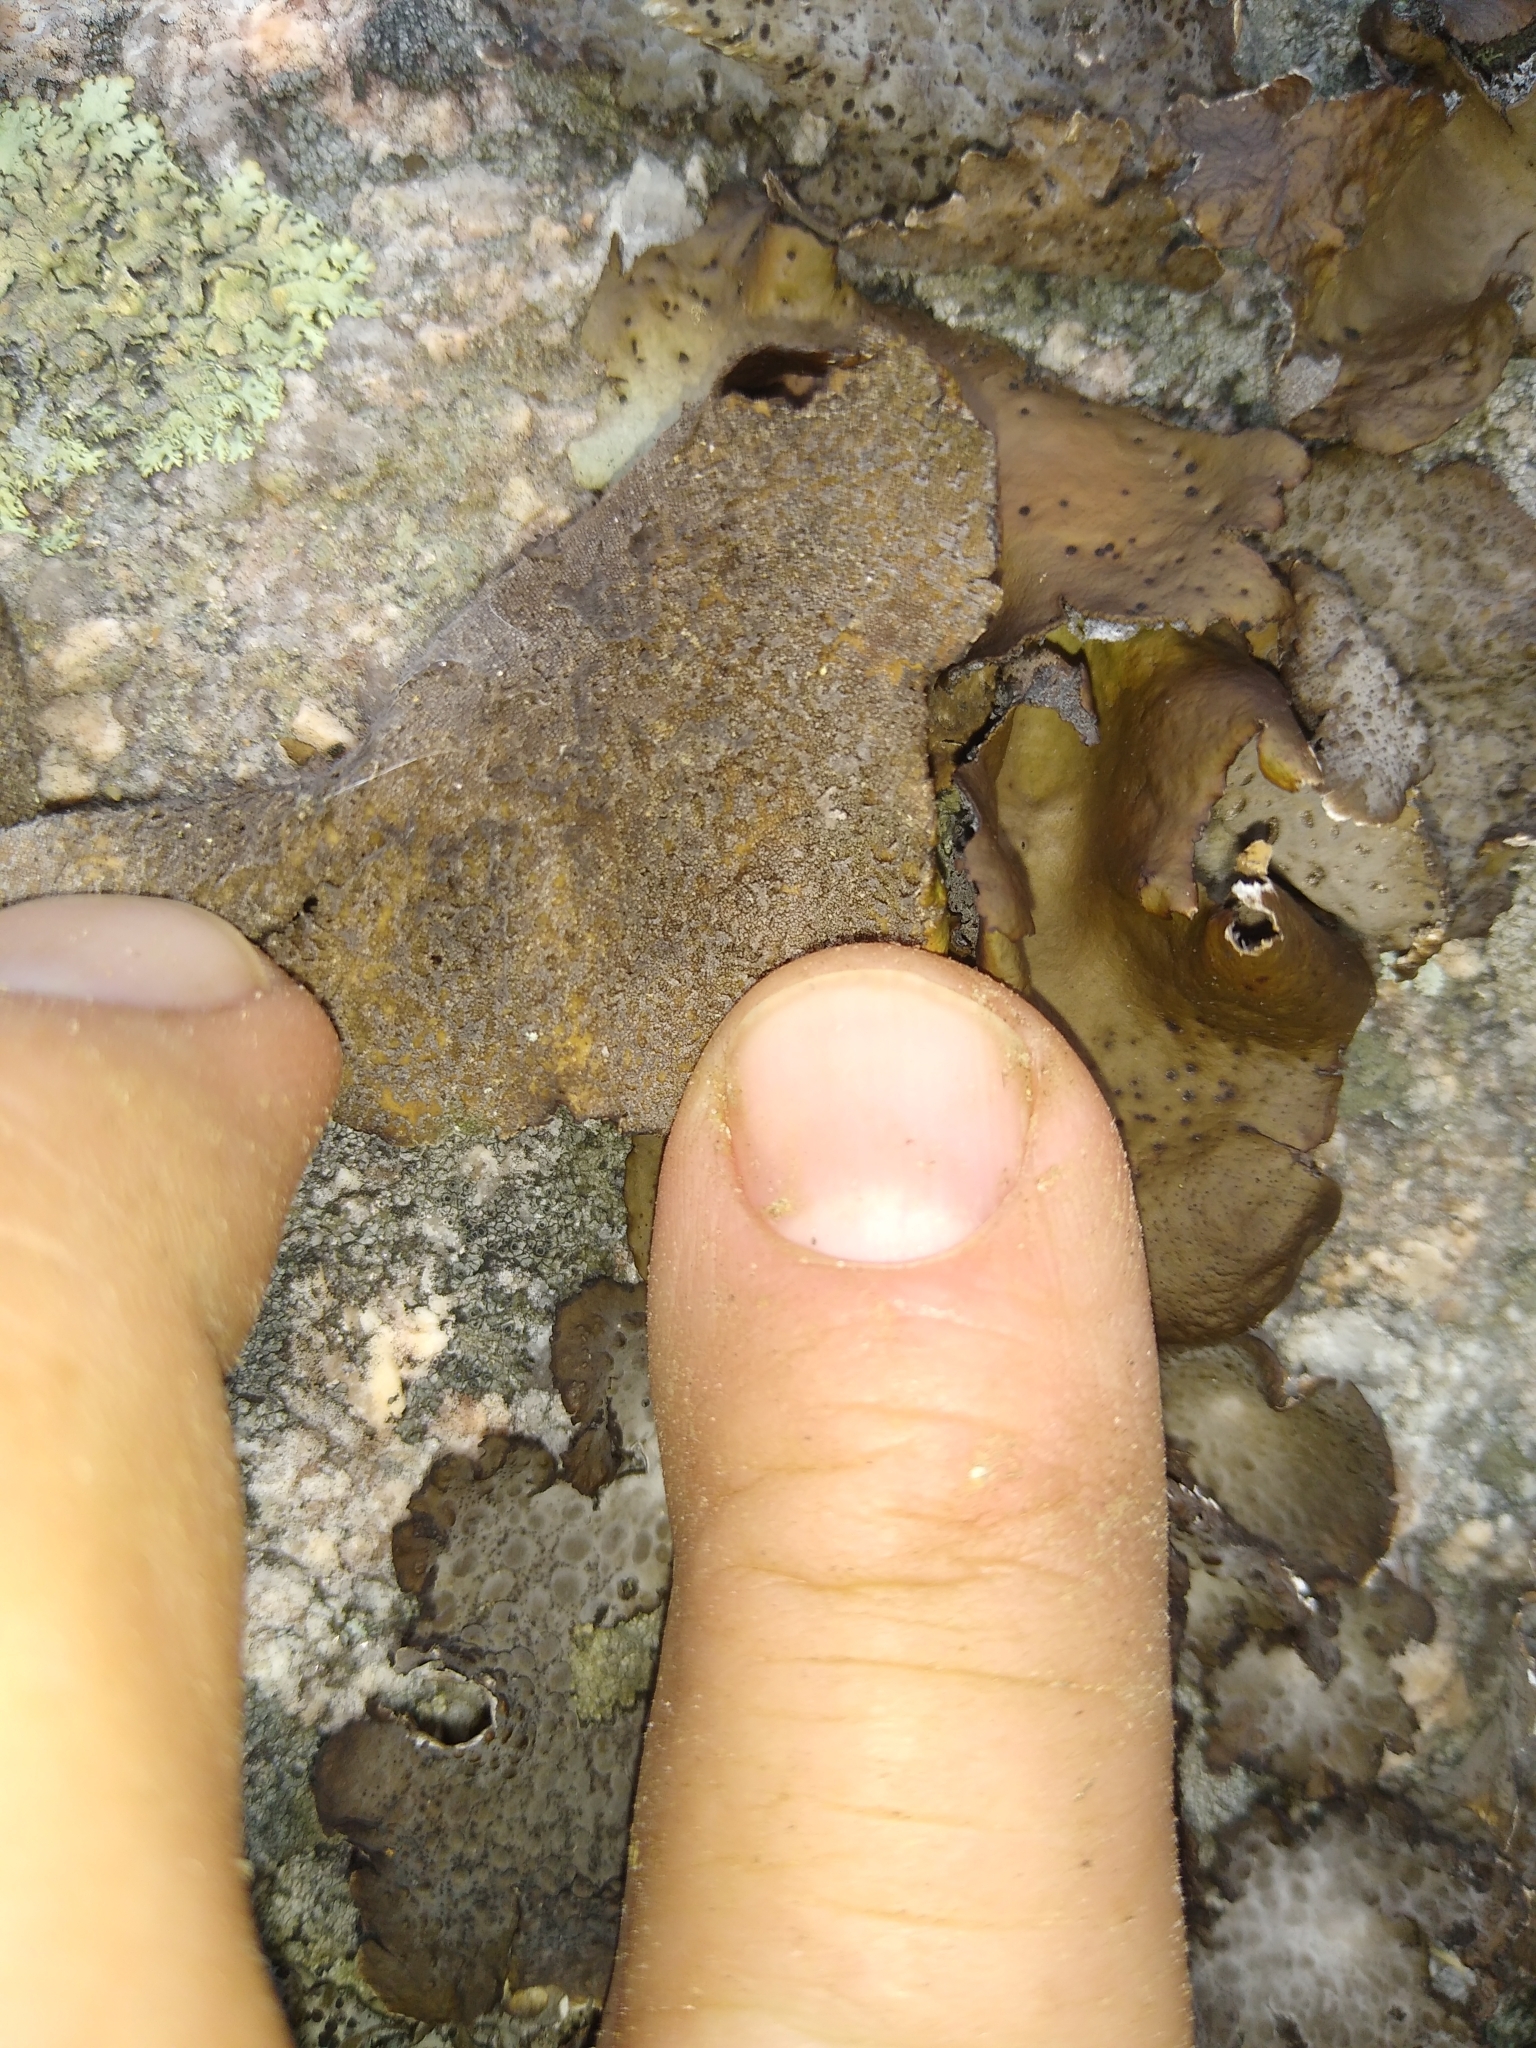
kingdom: Fungi
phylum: Ascomycota
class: Lecanoromycetes
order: Umbilicariales
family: Umbilicariaceae
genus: Umbilicaria
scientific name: Umbilicaria muhlenbergii
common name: Lesser rocktripe
